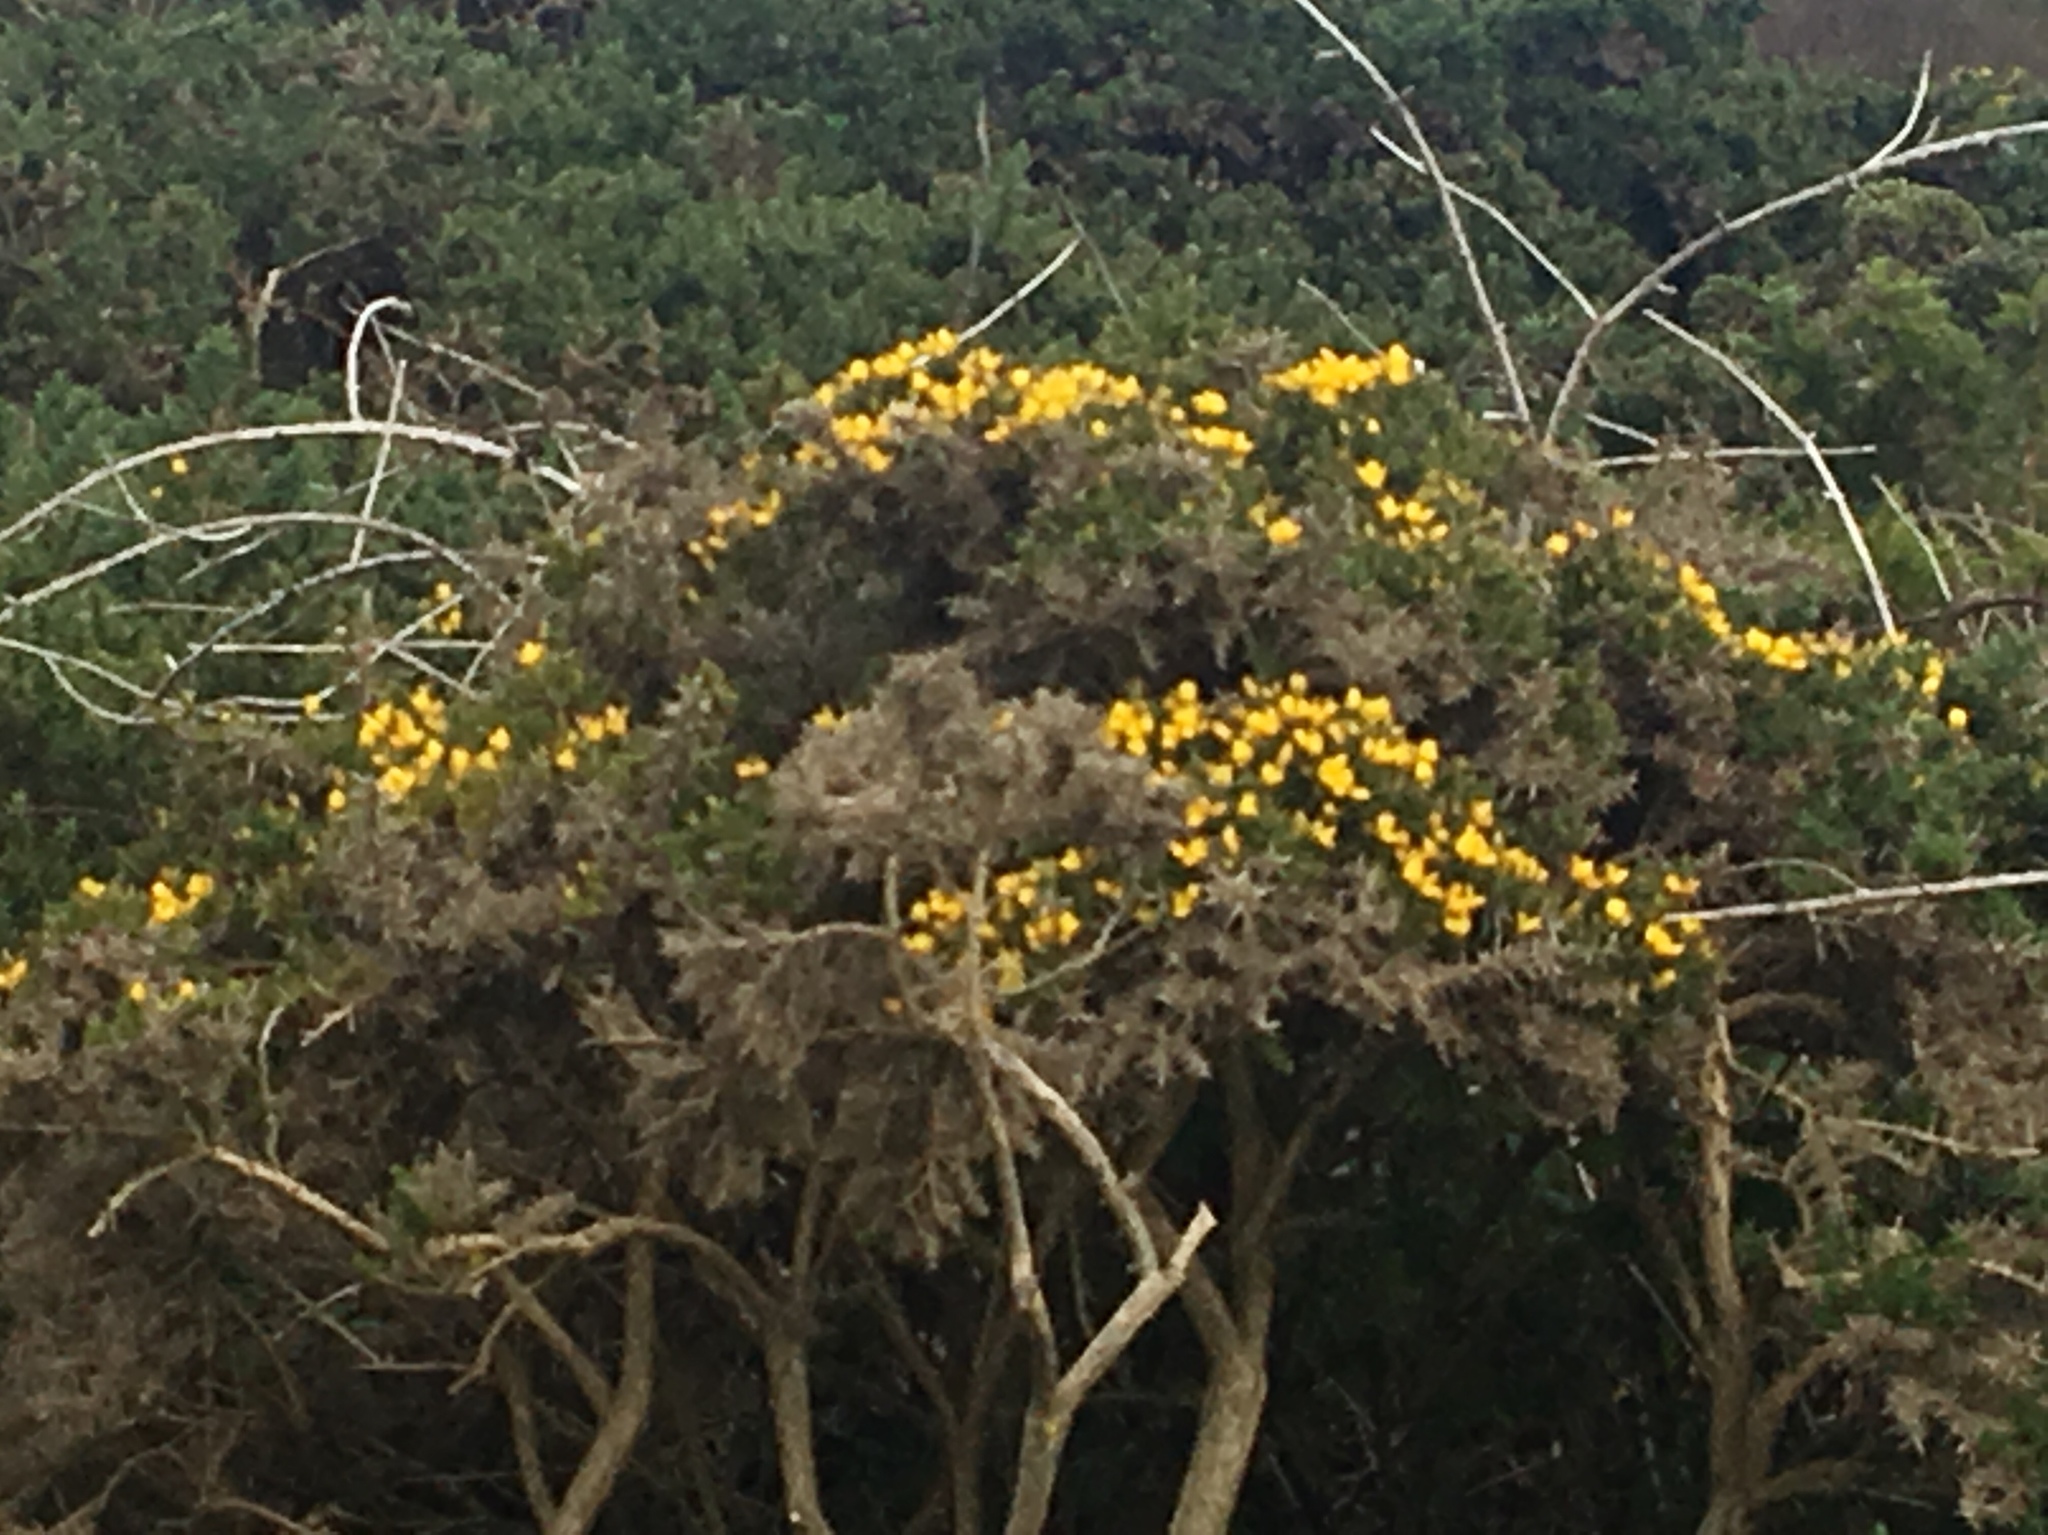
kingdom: Plantae
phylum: Tracheophyta
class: Magnoliopsida
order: Fabales
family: Fabaceae
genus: Ulex
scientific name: Ulex europaeus
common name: Common gorse
